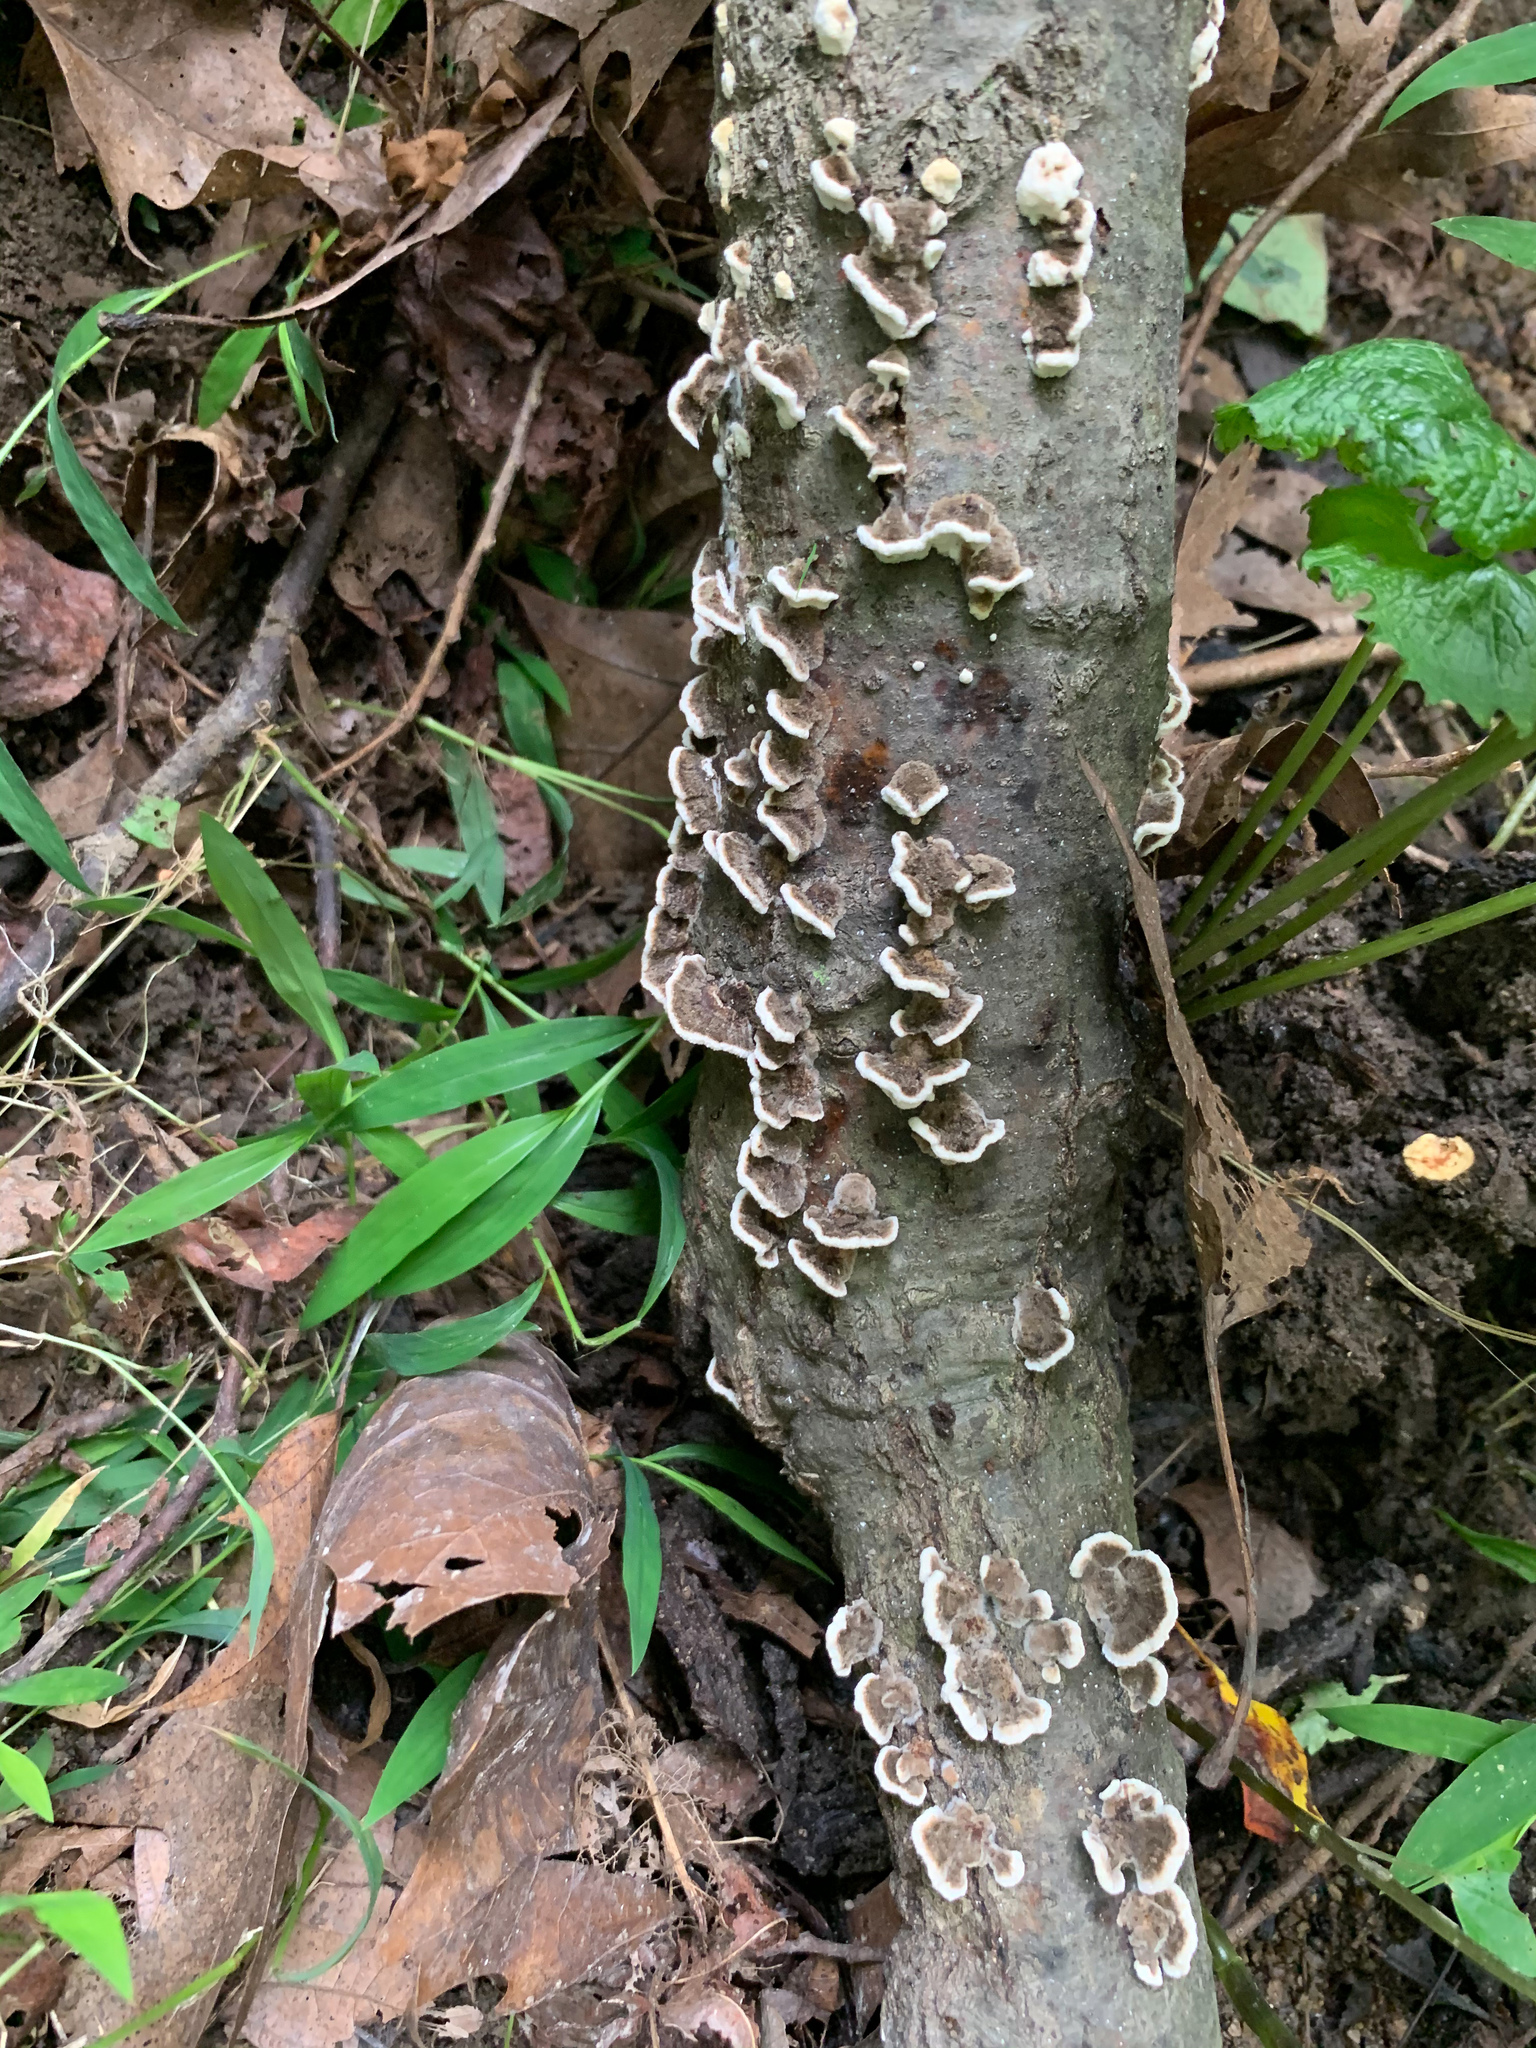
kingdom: Fungi
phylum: Basidiomycota
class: Agaricomycetes
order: Polyporales
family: Polyporaceae
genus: Trametes
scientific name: Trametes versicolor
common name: Turkeytail
